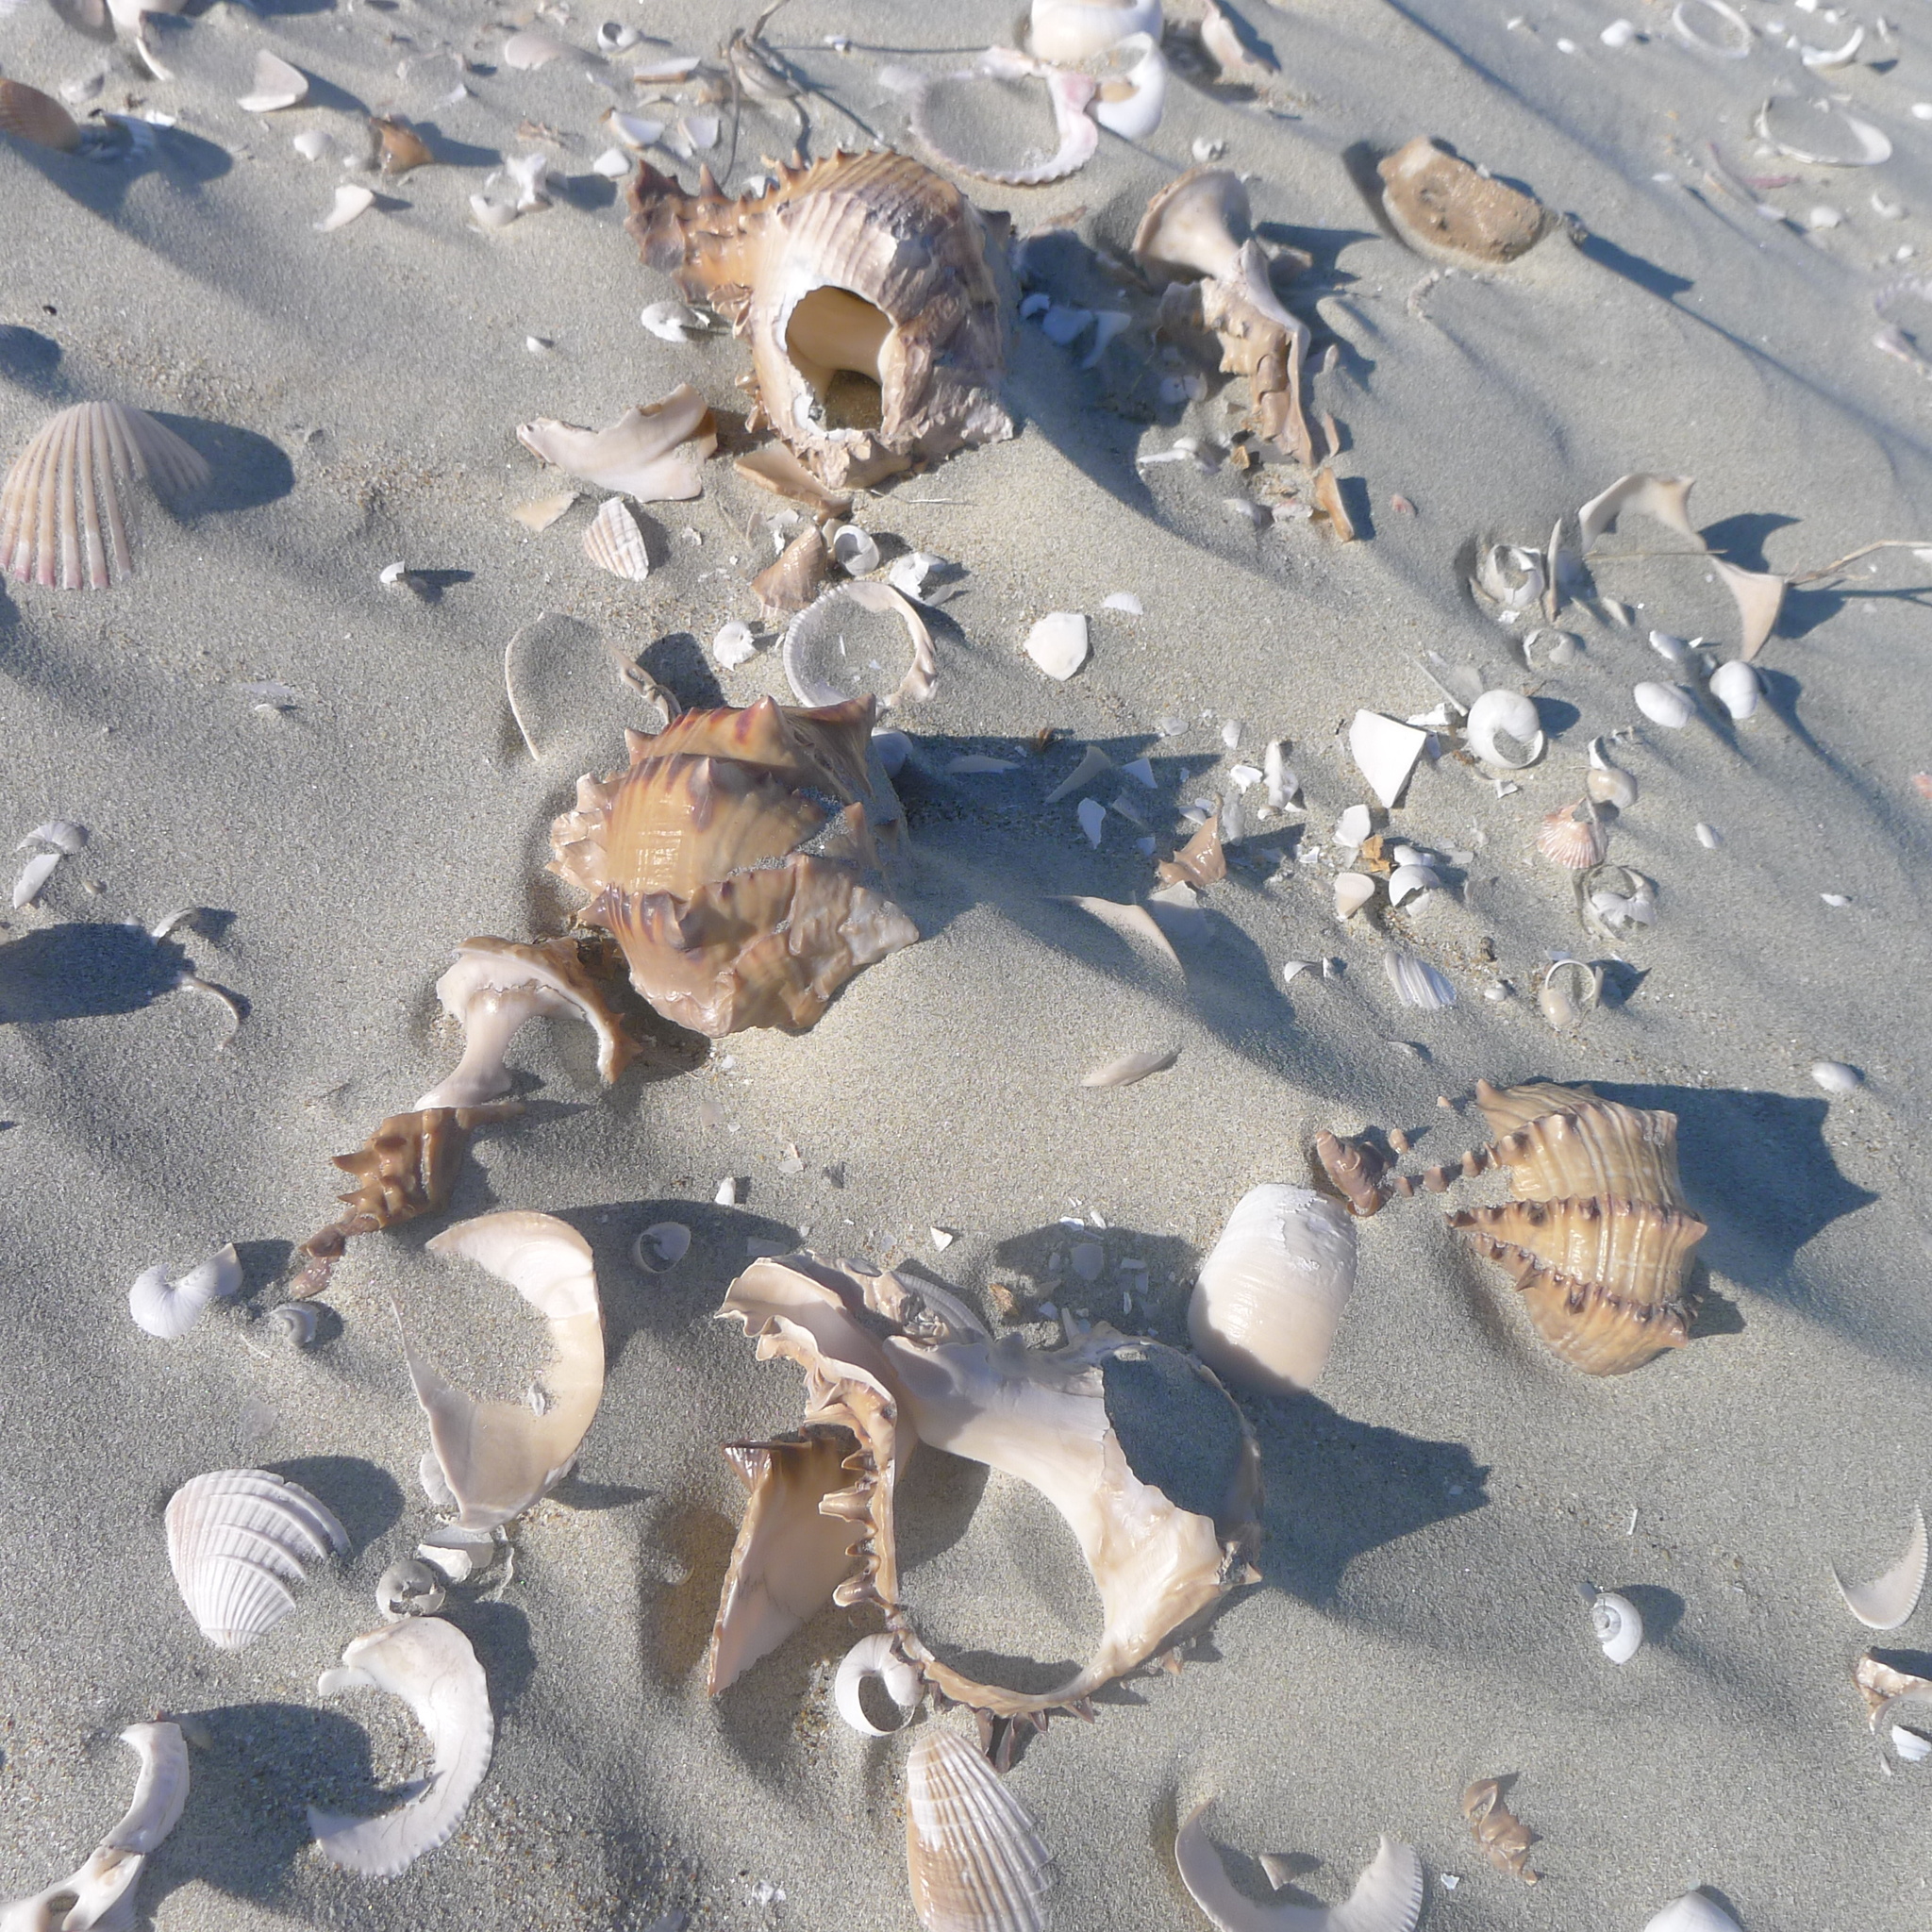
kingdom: Animalia
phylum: Mollusca
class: Gastropoda
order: Neogastropoda
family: Muricidae
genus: Muricanthus
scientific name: Muricanthus nigritus
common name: Black murex
